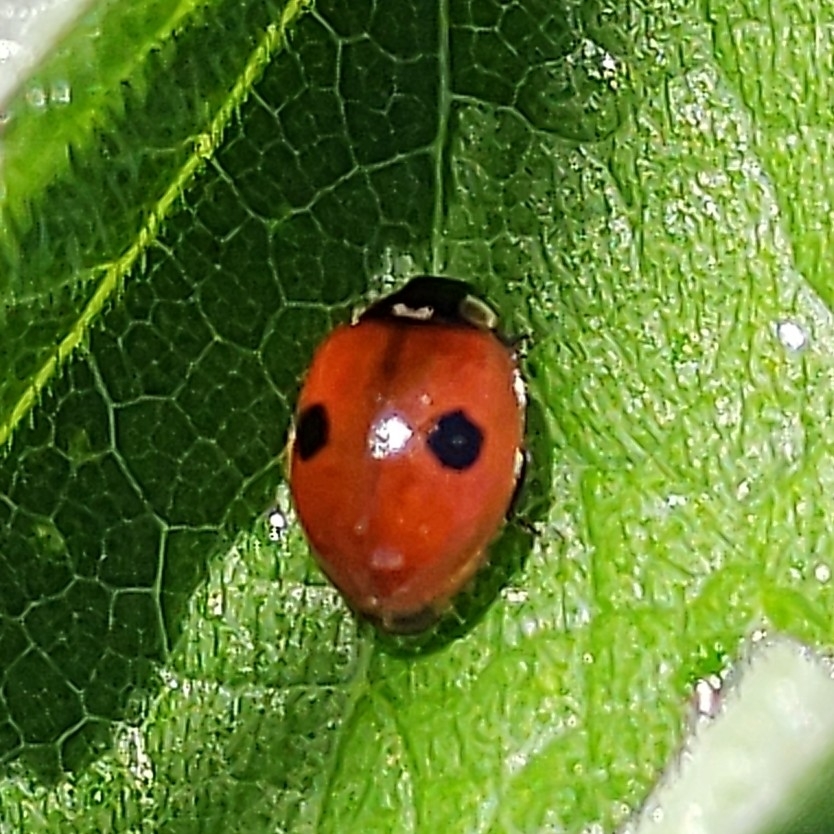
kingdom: Animalia
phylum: Arthropoda
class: Insecta
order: Coleoptera
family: Coccinellidae
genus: Adalia
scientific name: Adalia bipunctata
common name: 2-spot ladybird
